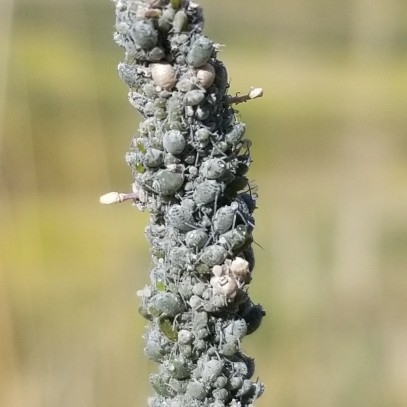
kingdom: Animalia
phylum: Arthropoda
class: Insecta
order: Hemiptera
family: Aphididae
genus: Brevicoryne
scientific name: Brevicoryne brassicae
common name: Cabbage aphid
